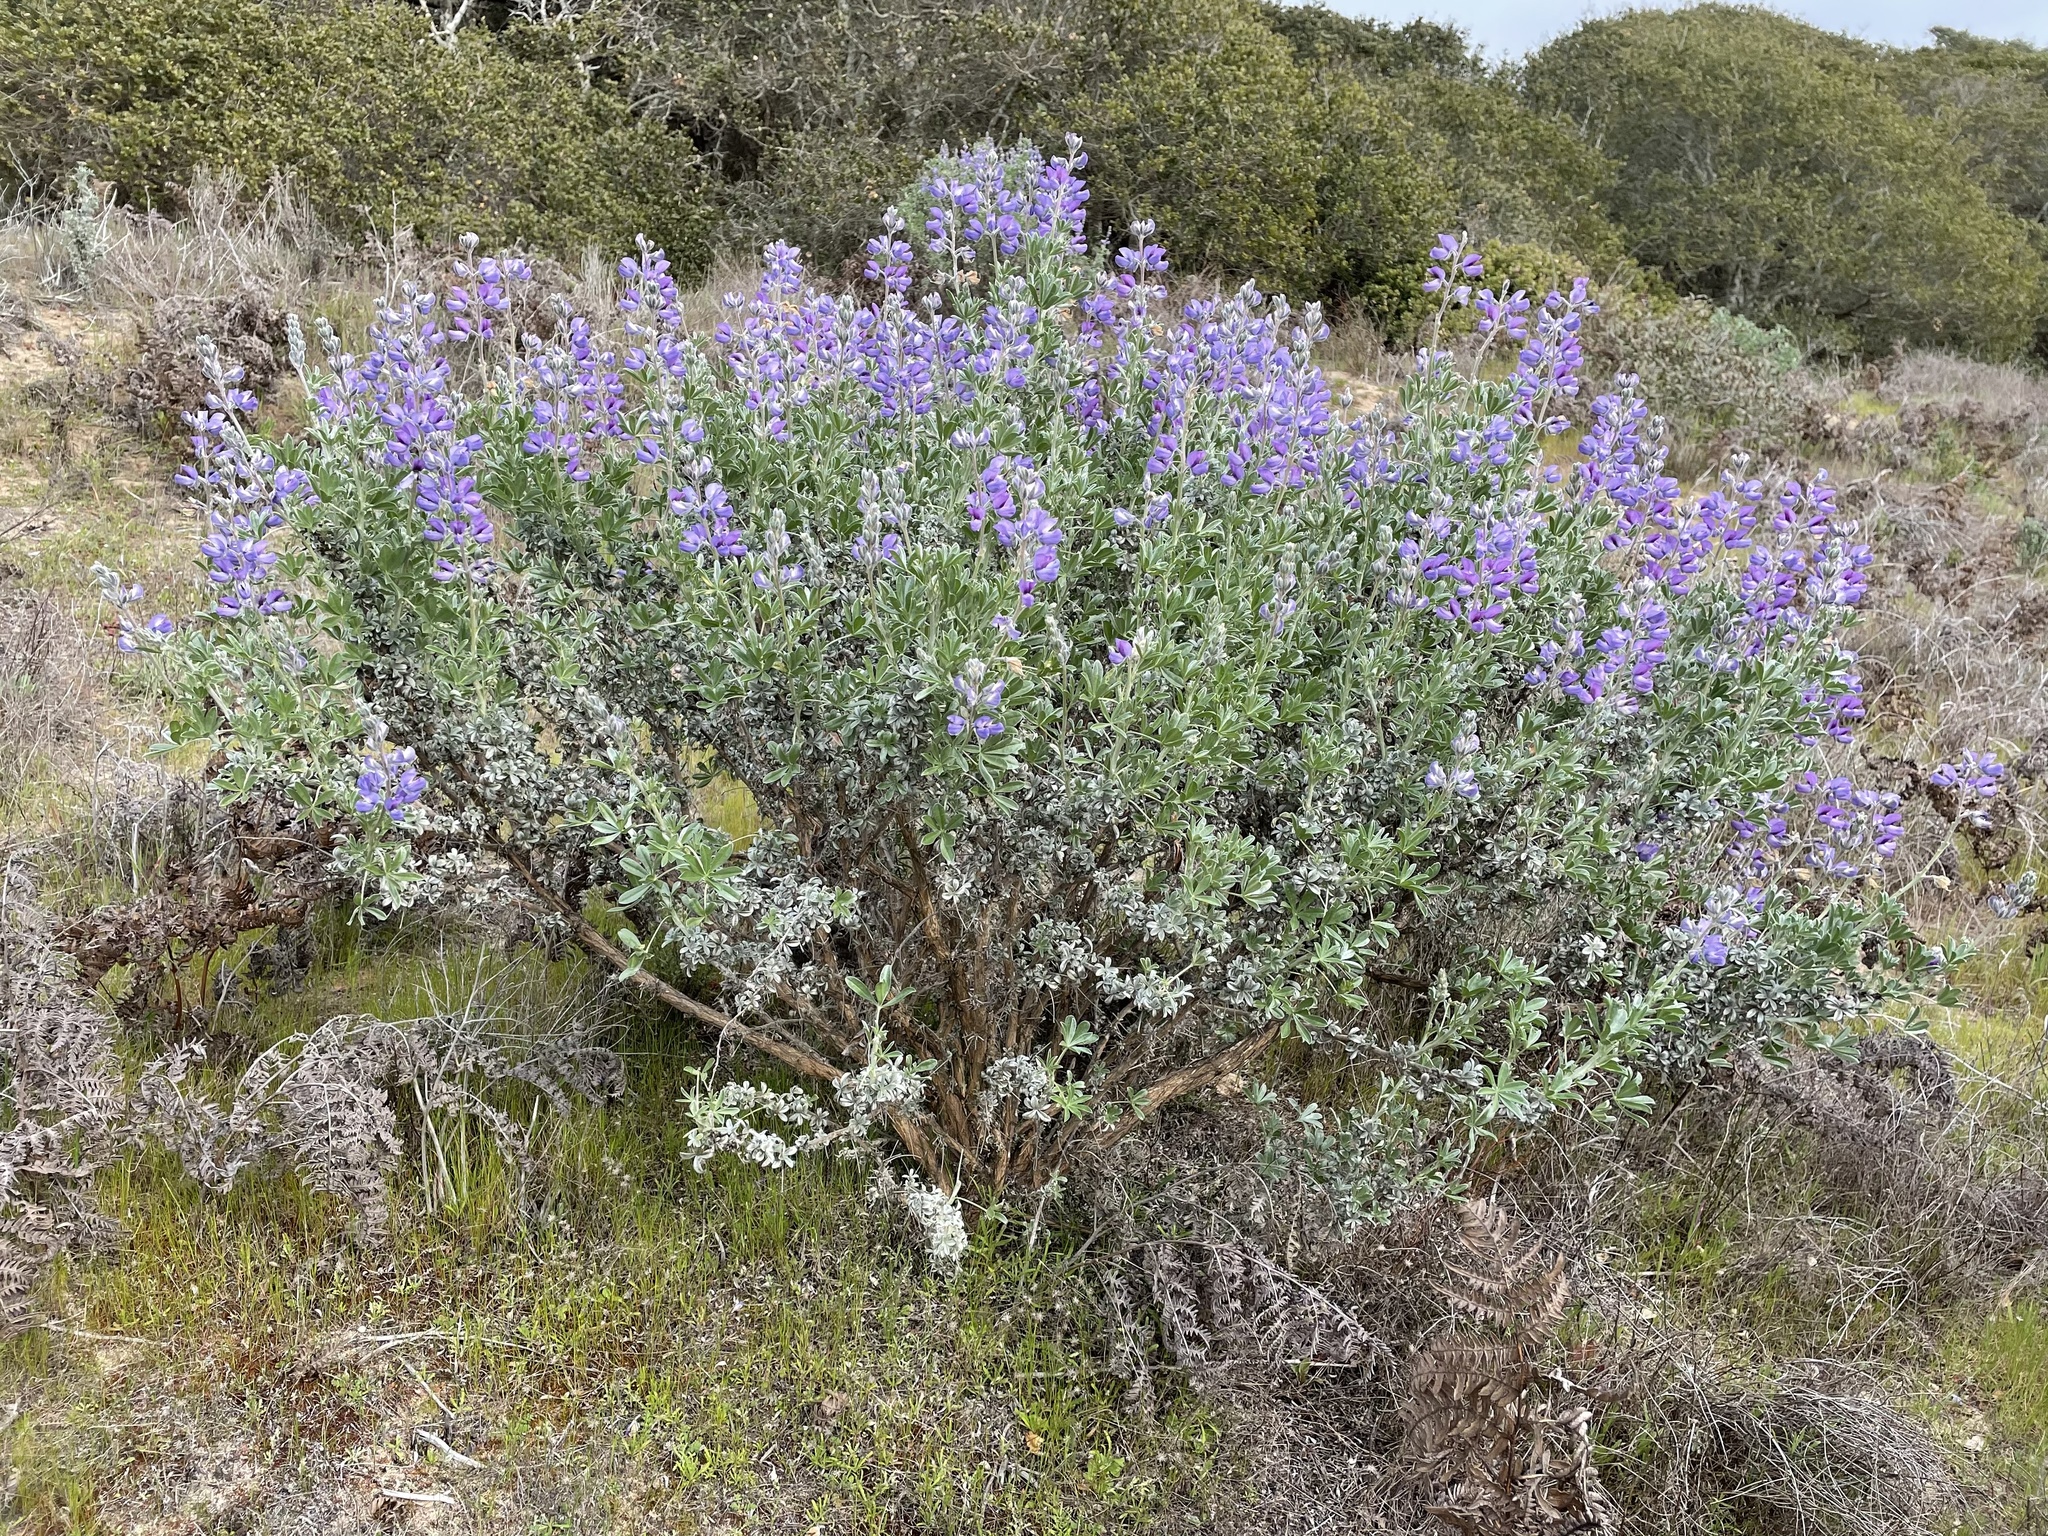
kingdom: Plantae
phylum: Tracheophyta
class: Magnoliopsida
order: Fabales
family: Fabaceae
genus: Lupinus
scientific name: Lupinus chamissonis
